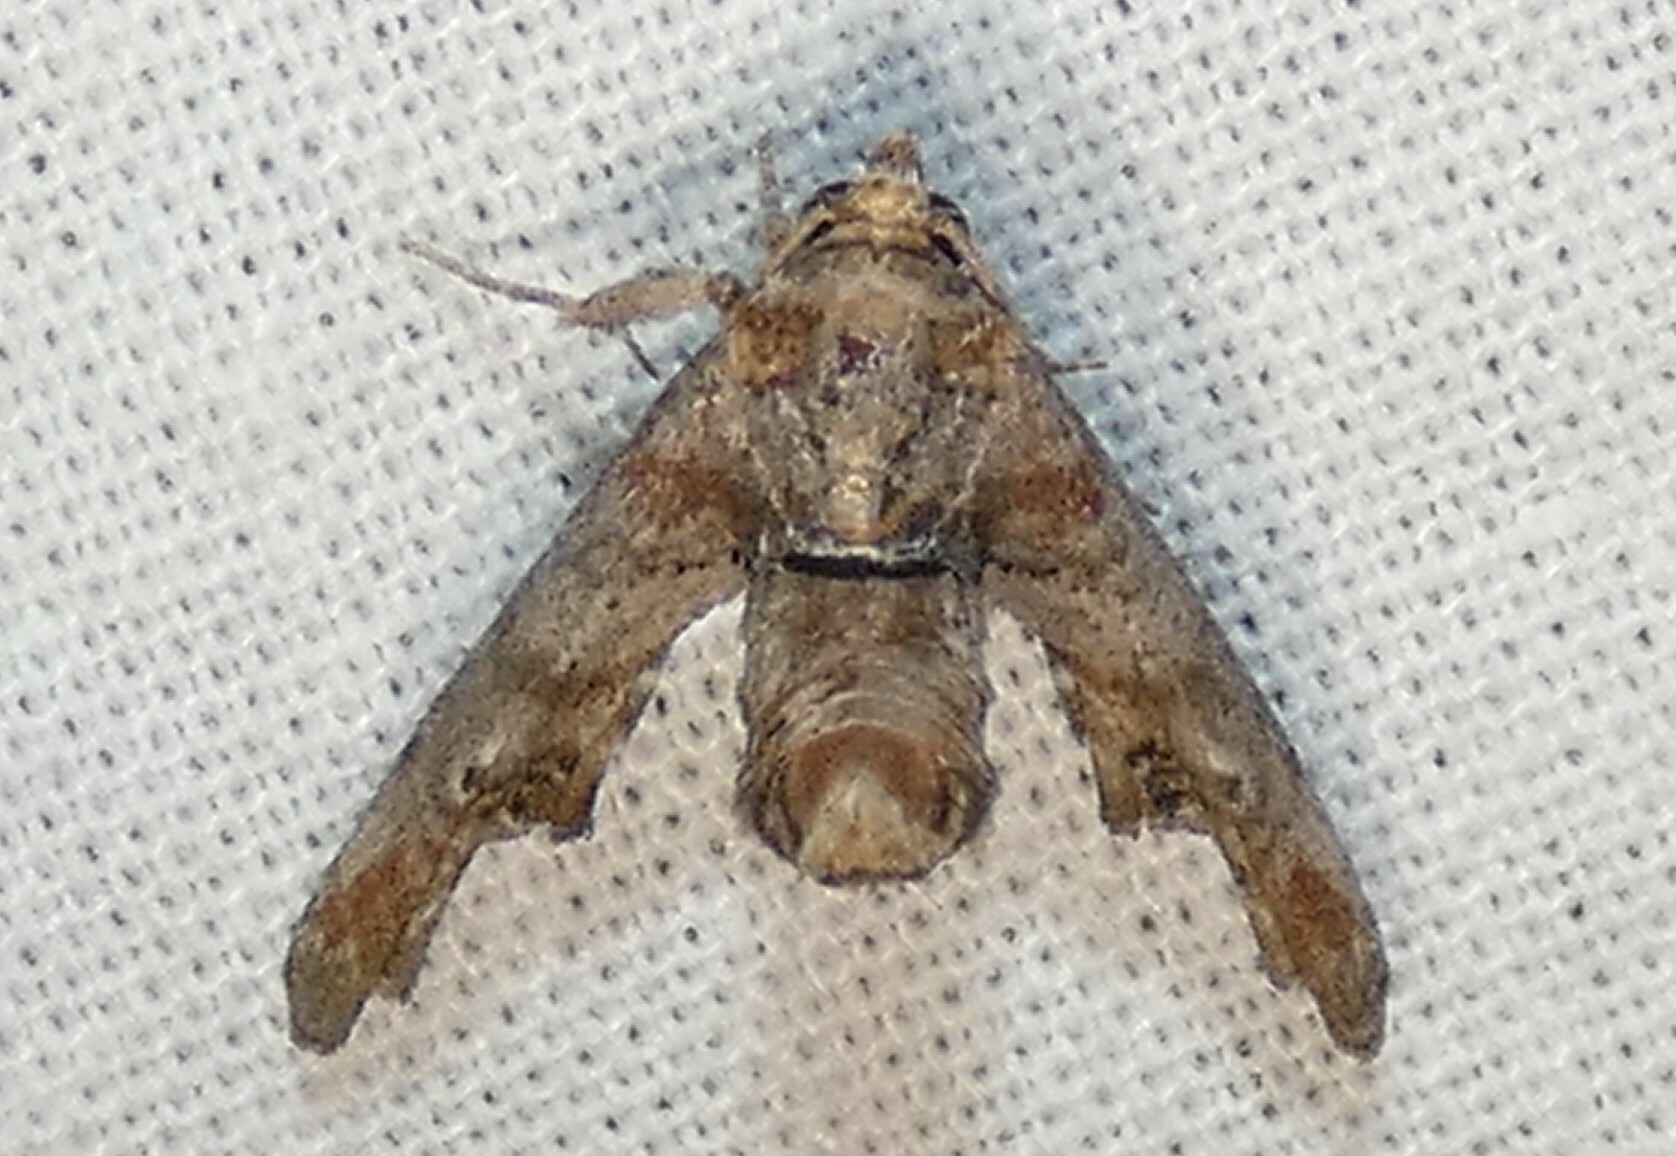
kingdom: Animalia
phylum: Arthropoda
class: Insecta
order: Lepidoptera
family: Euteliidae
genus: Marathyssa
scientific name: Marathyssa inficita
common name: Dark marathyssa moth
